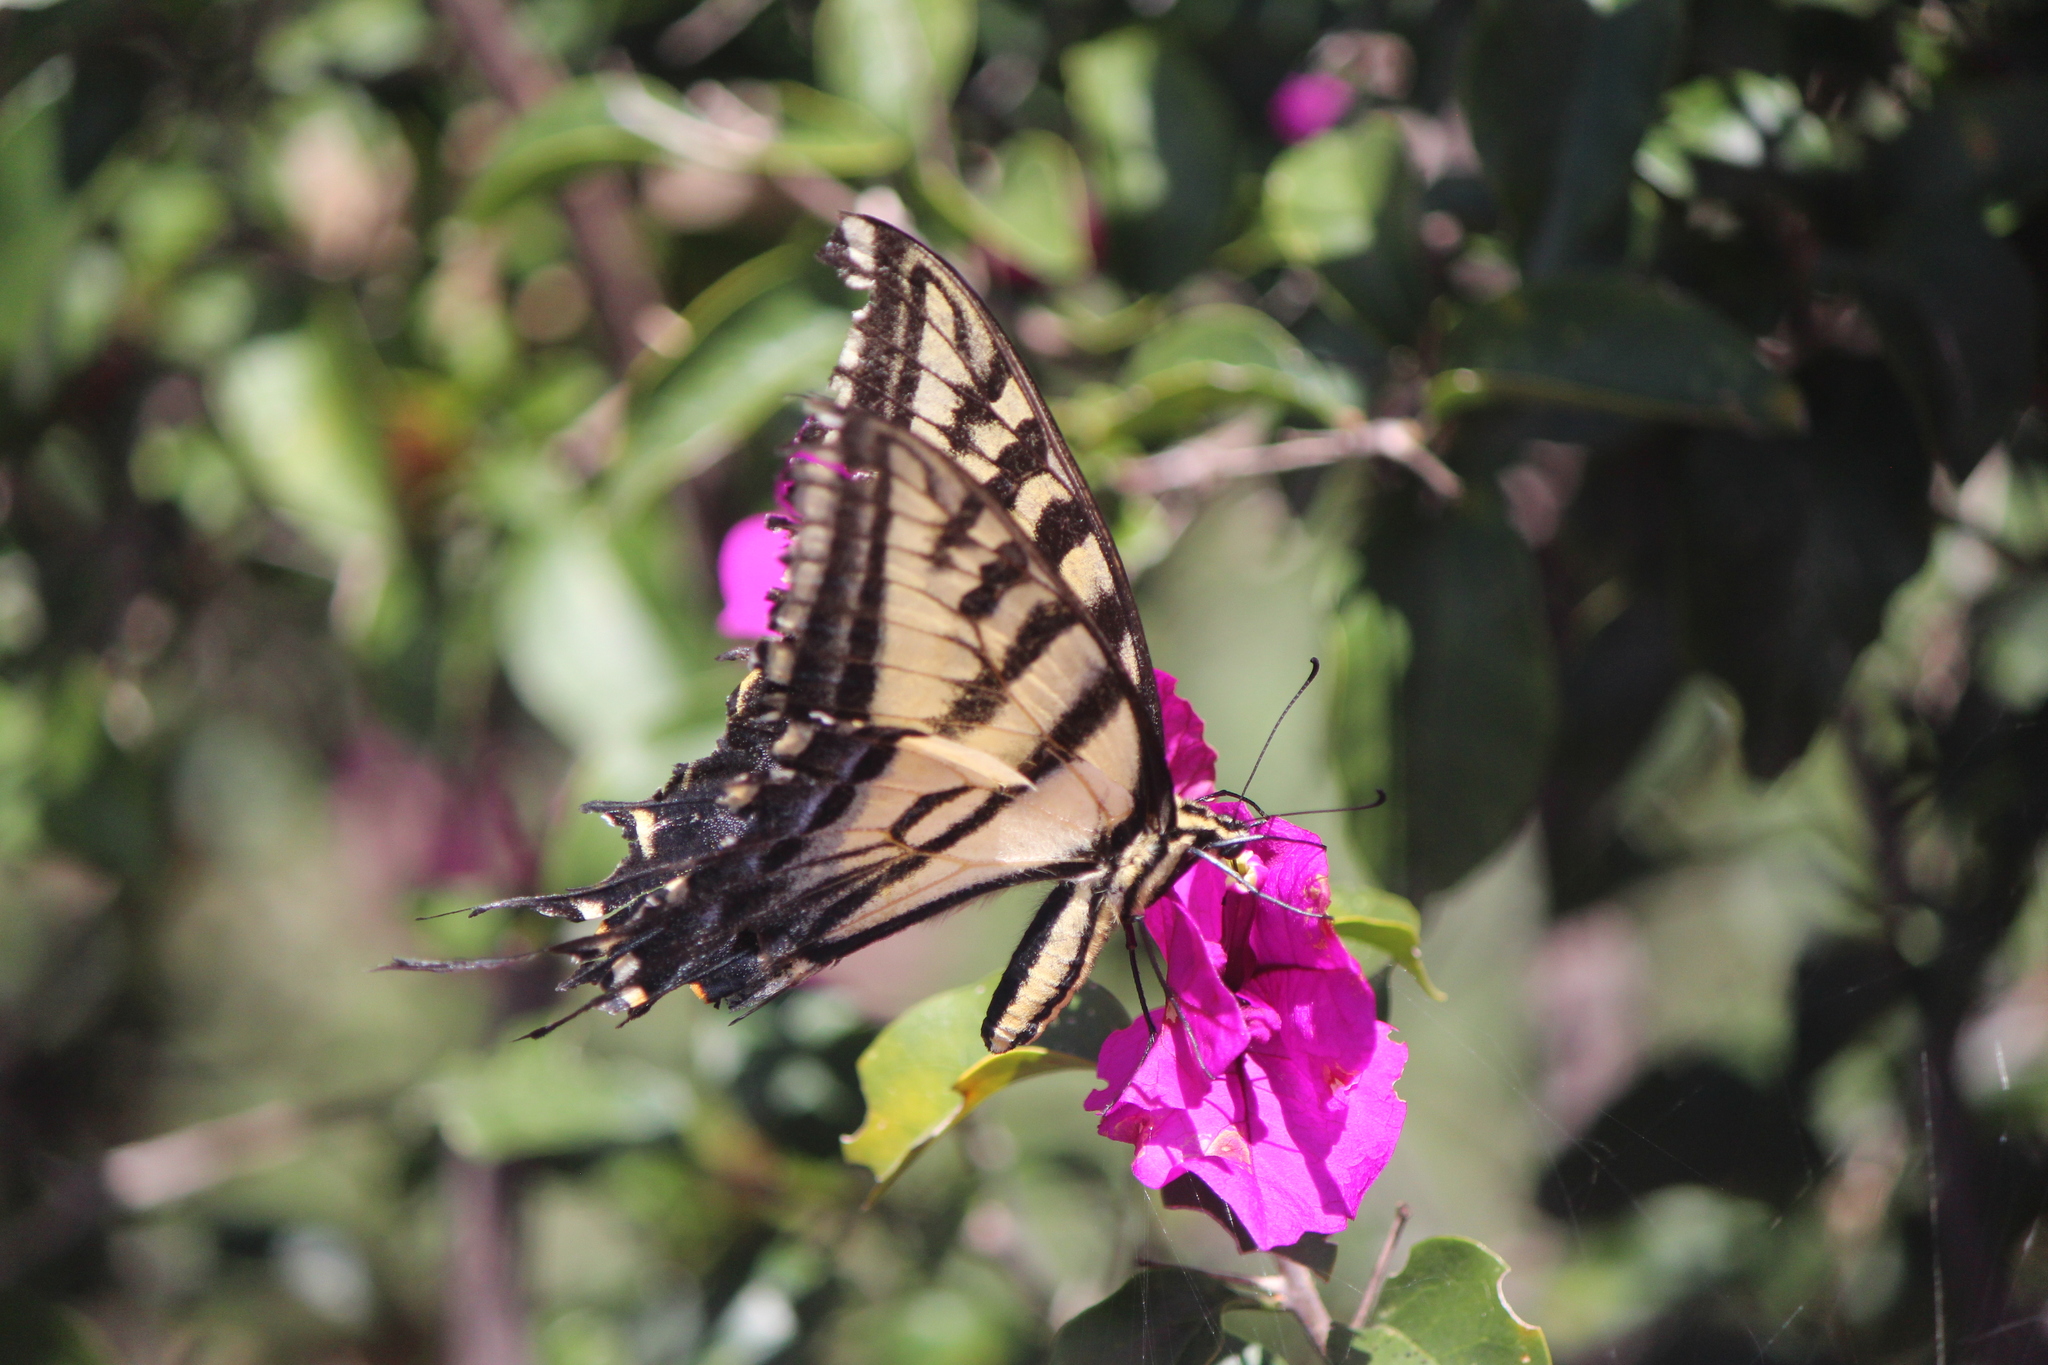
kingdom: Animalia
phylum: Arthropoda
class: Insecta
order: Lepidoptera
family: Papilionidae
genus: Papilio
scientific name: Papilio multicaudata
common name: Two-tailed tiger swallowtail
